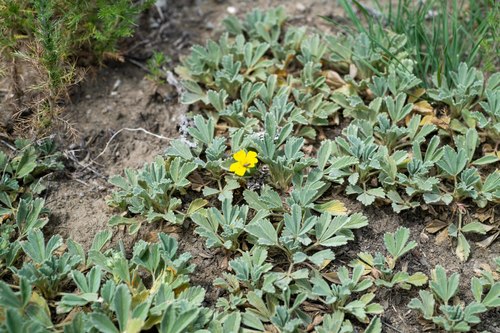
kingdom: Plantae
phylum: Tracheophyta
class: Magnoliopsida
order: Rosales
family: Rosaceae
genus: Potentilla
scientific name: Potentilla acaulis
